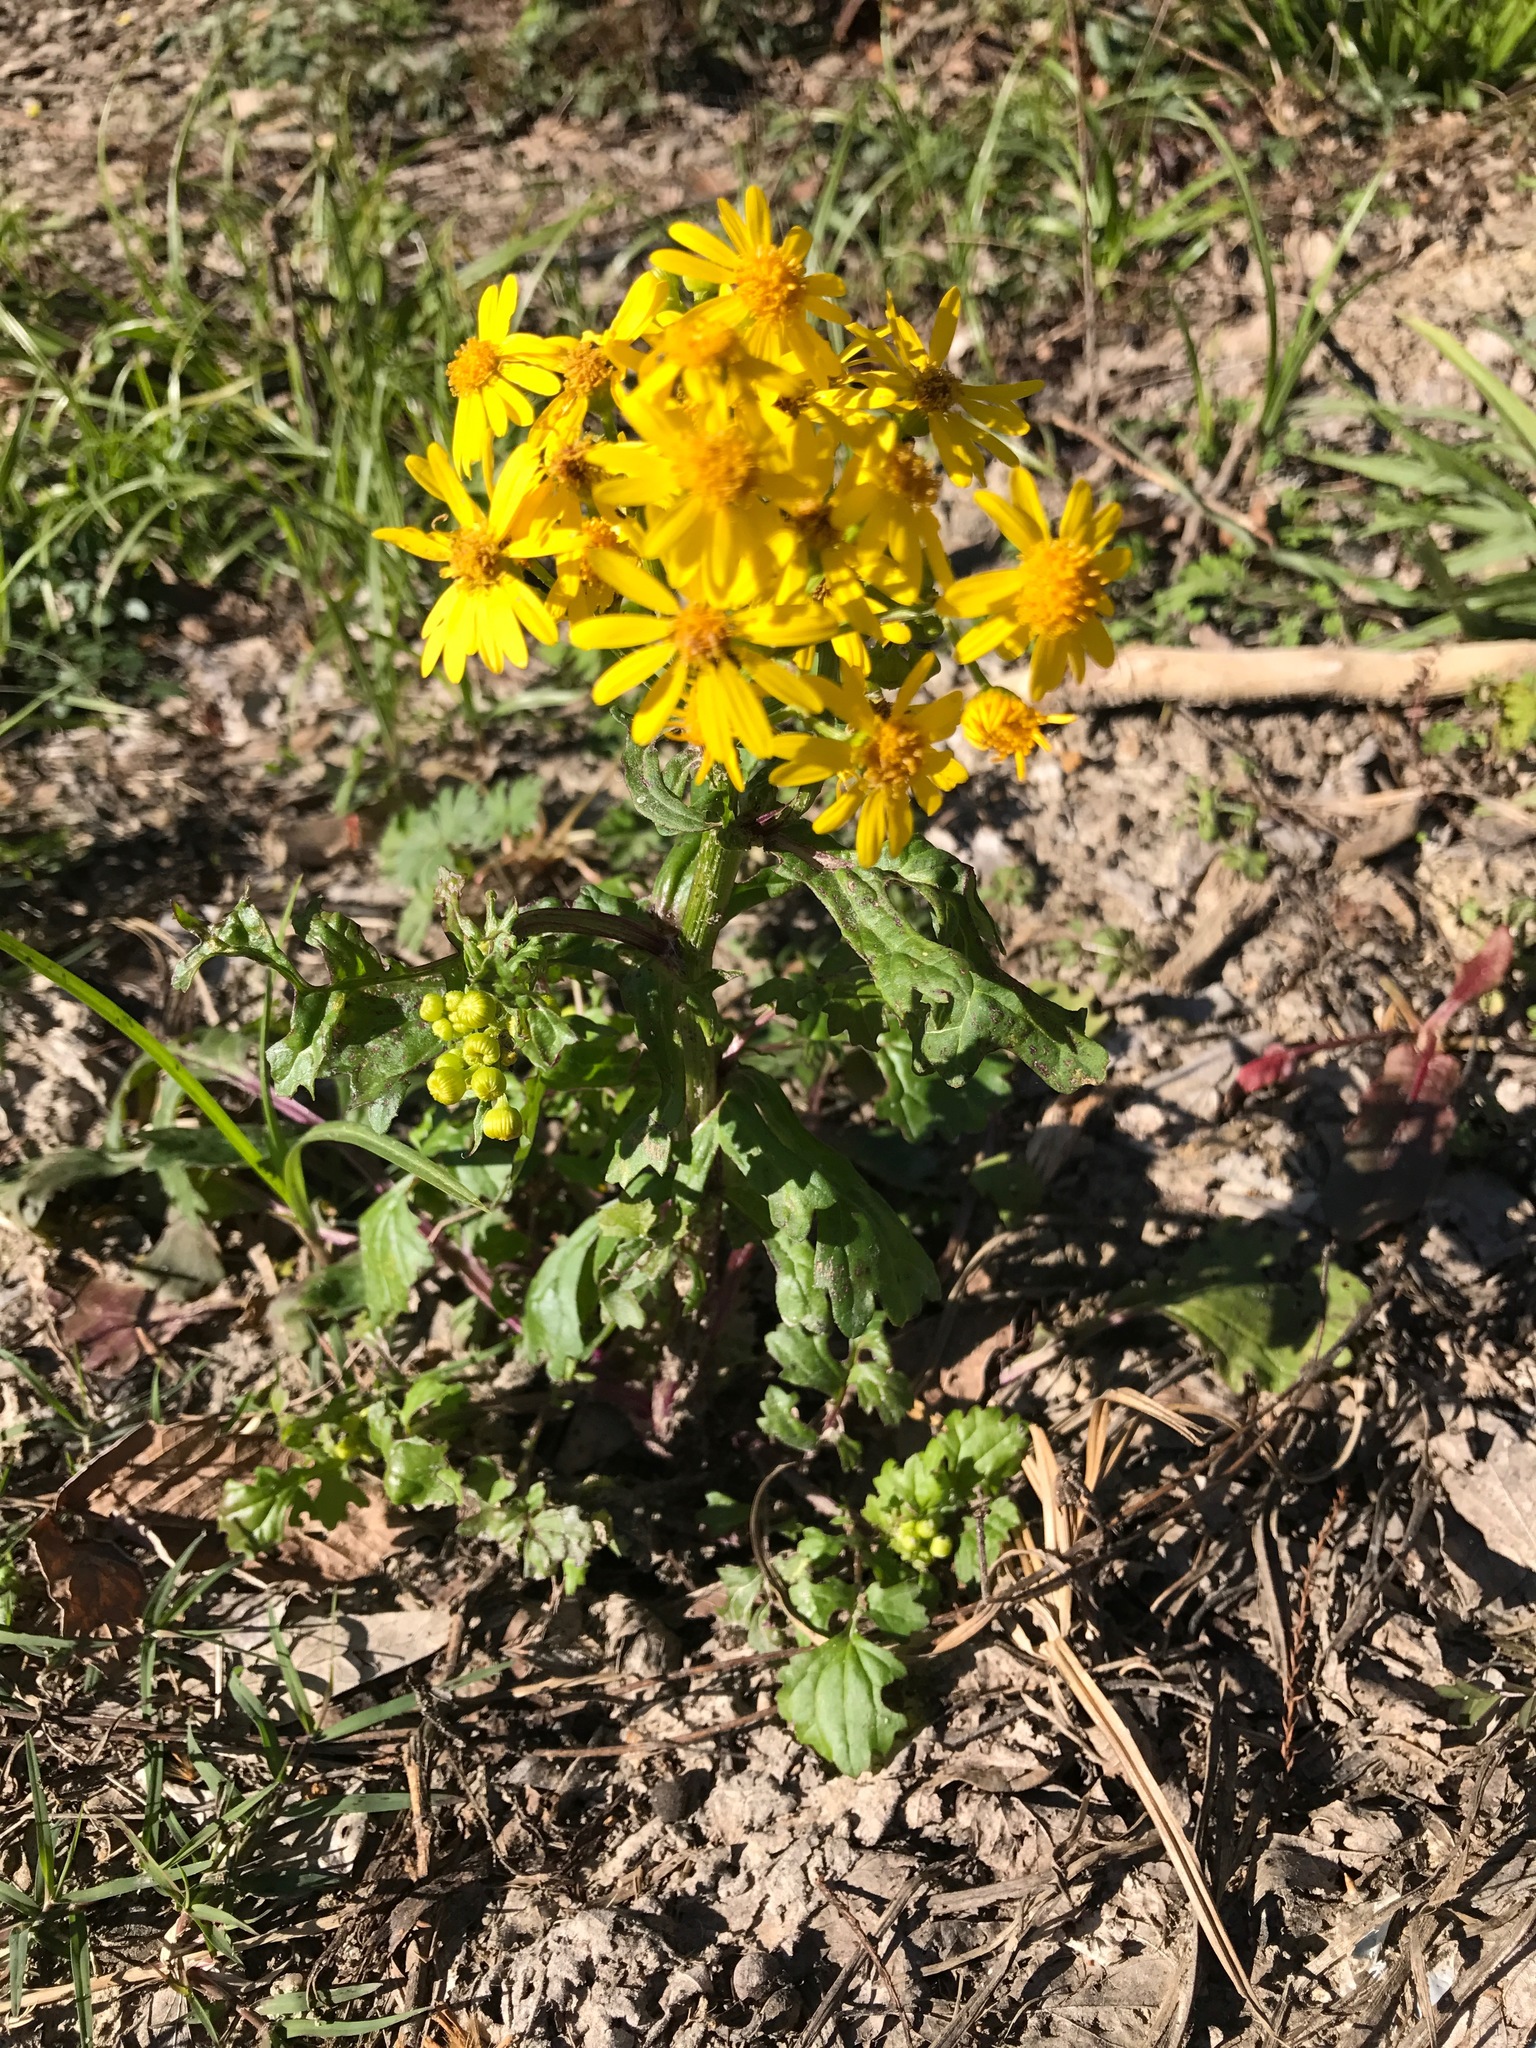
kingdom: Plantae
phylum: Tracheophyta
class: Magnoliopsida
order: Asterales
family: Asteraceae
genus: Packera
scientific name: Packera glabella
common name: Butterweed
